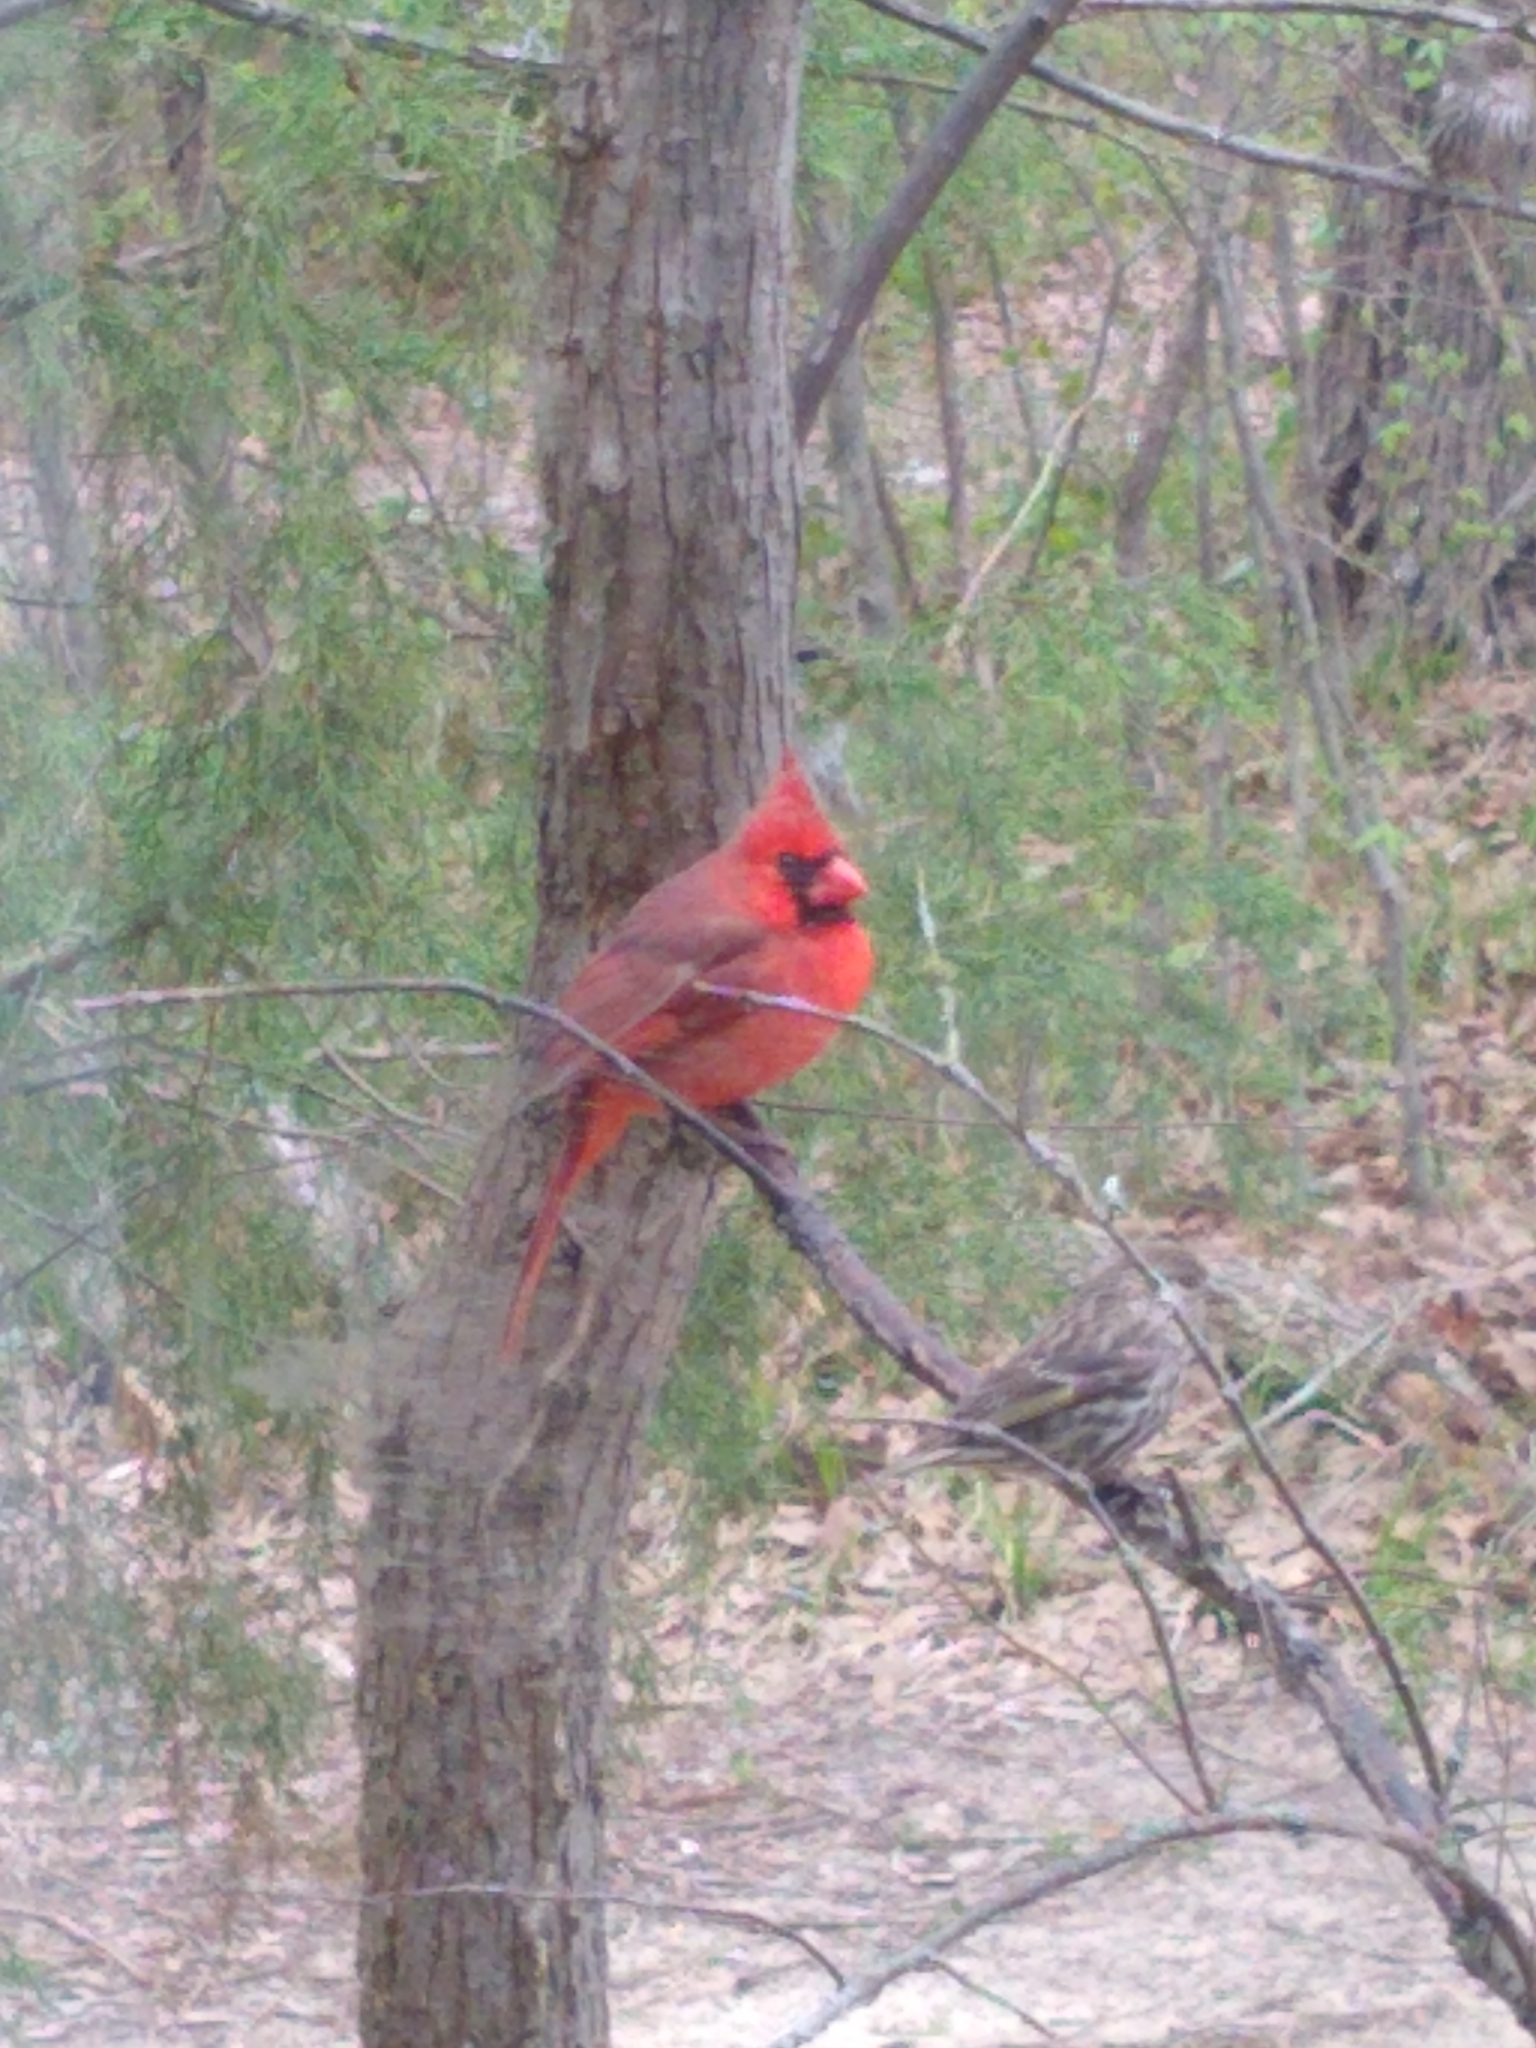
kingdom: Animalia
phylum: Chordata
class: Aves
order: Passeriformes
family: Cardinalidae
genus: Cardinalis
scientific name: Cardinalis cardinalis
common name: Northern cardinal
